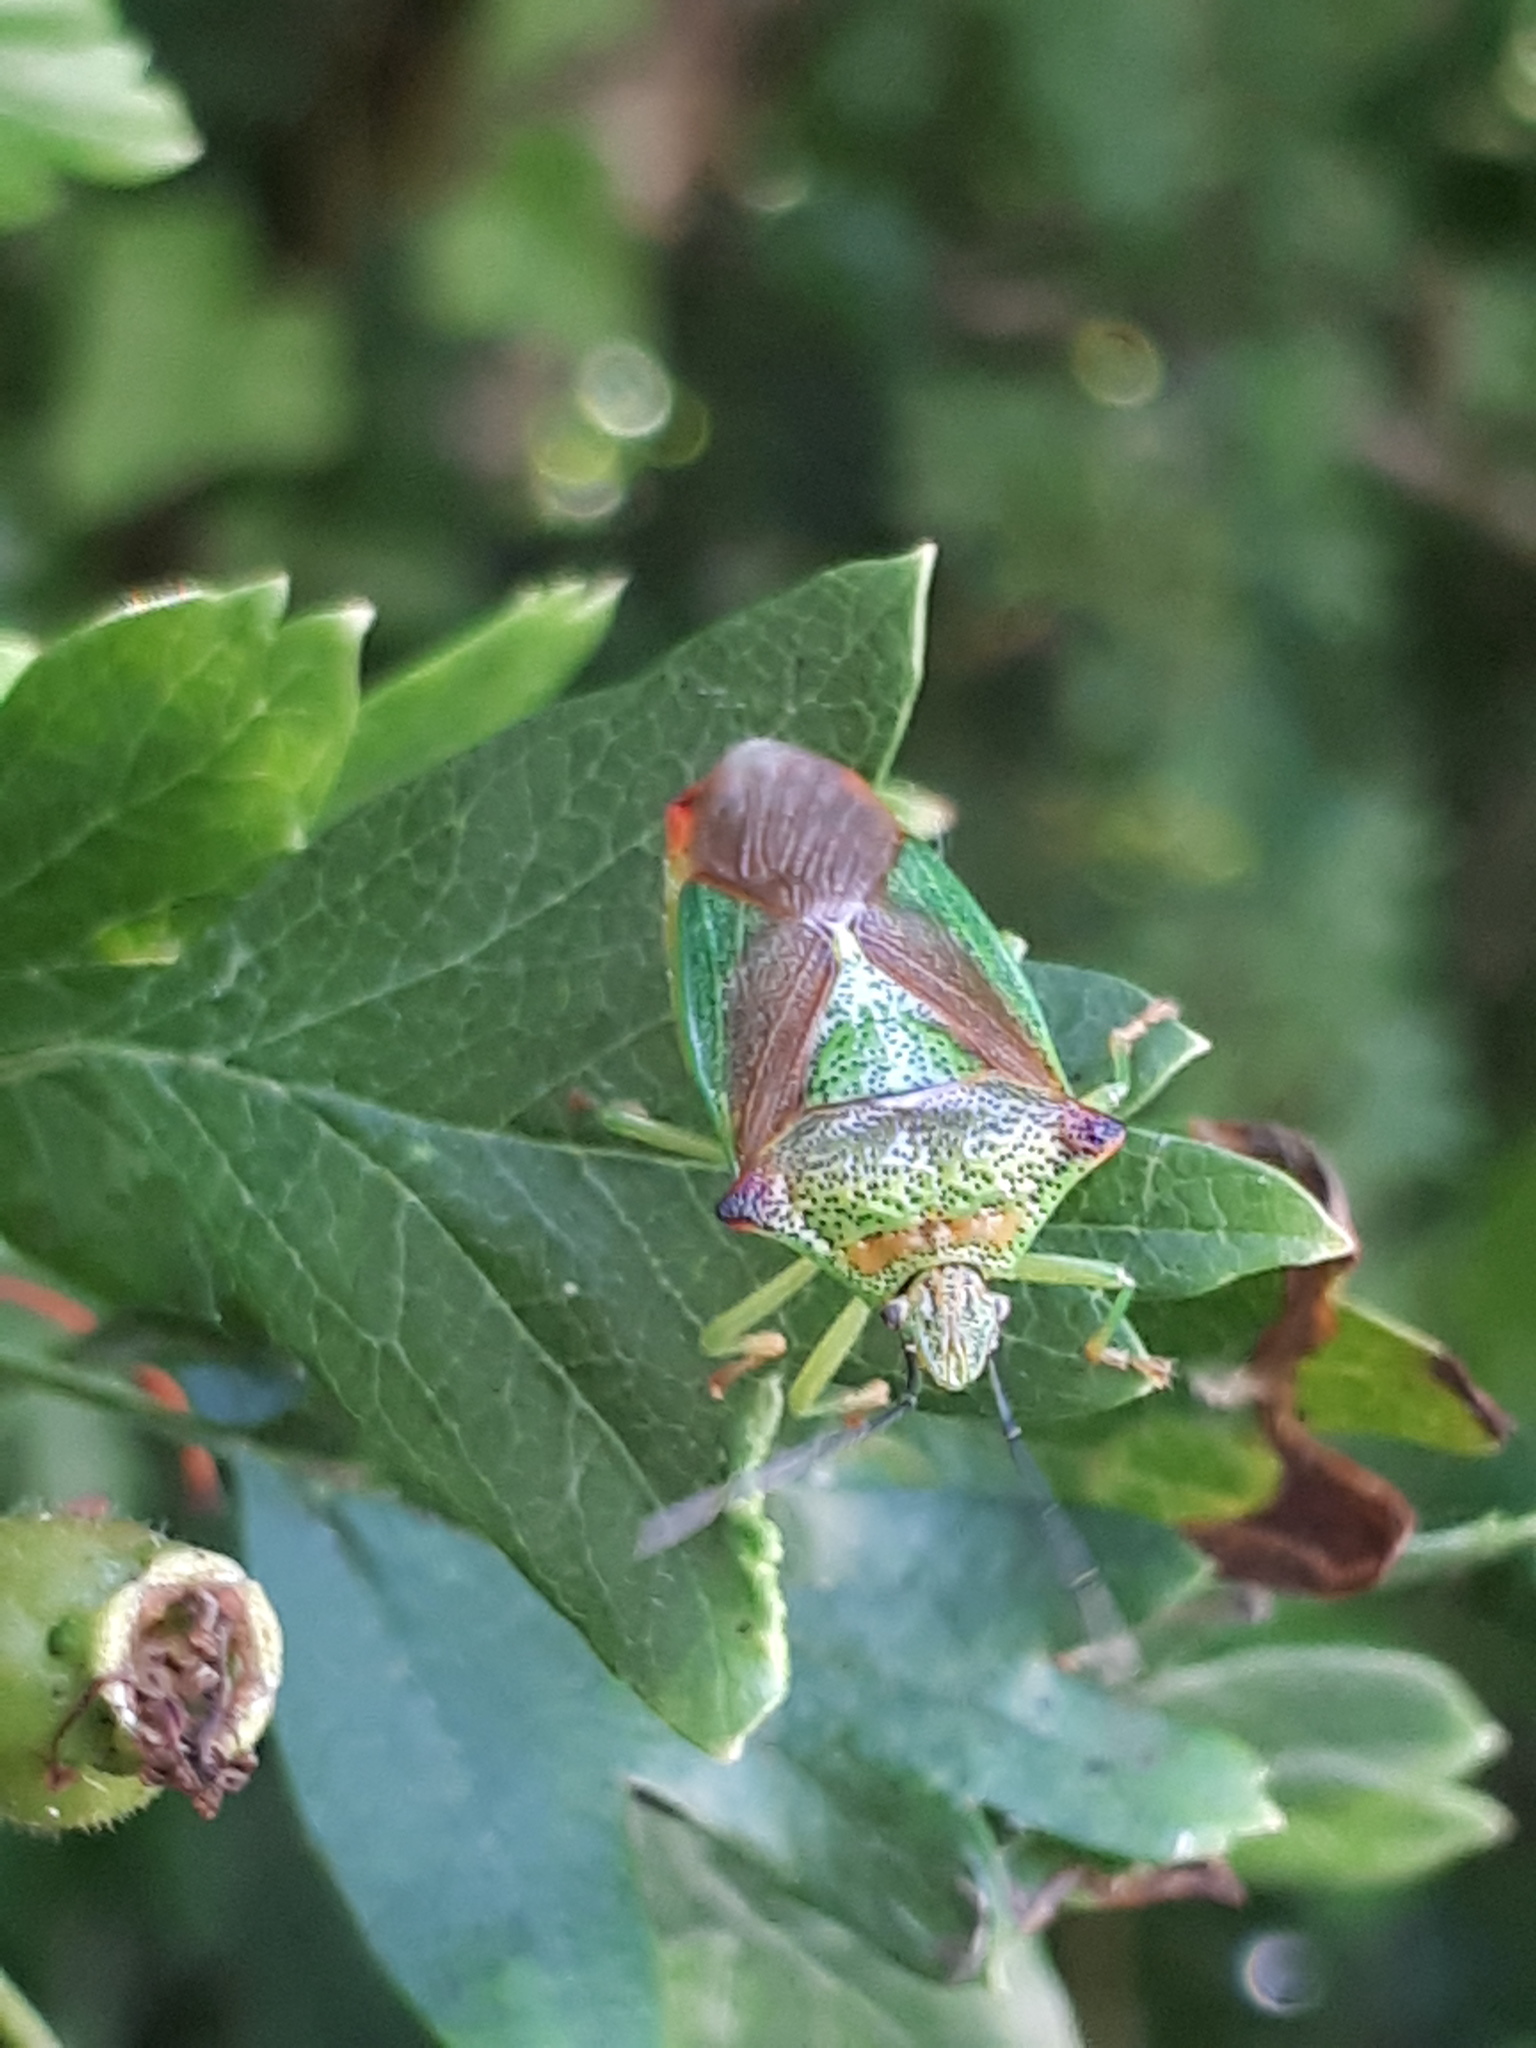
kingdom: Animalia
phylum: Arthropoda
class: Insecta
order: Hemiptera
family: Acanthosomatidae
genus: Acanthosoma
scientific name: Acanthosoma haemorrhoidale
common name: Hawthorn shieldbug
